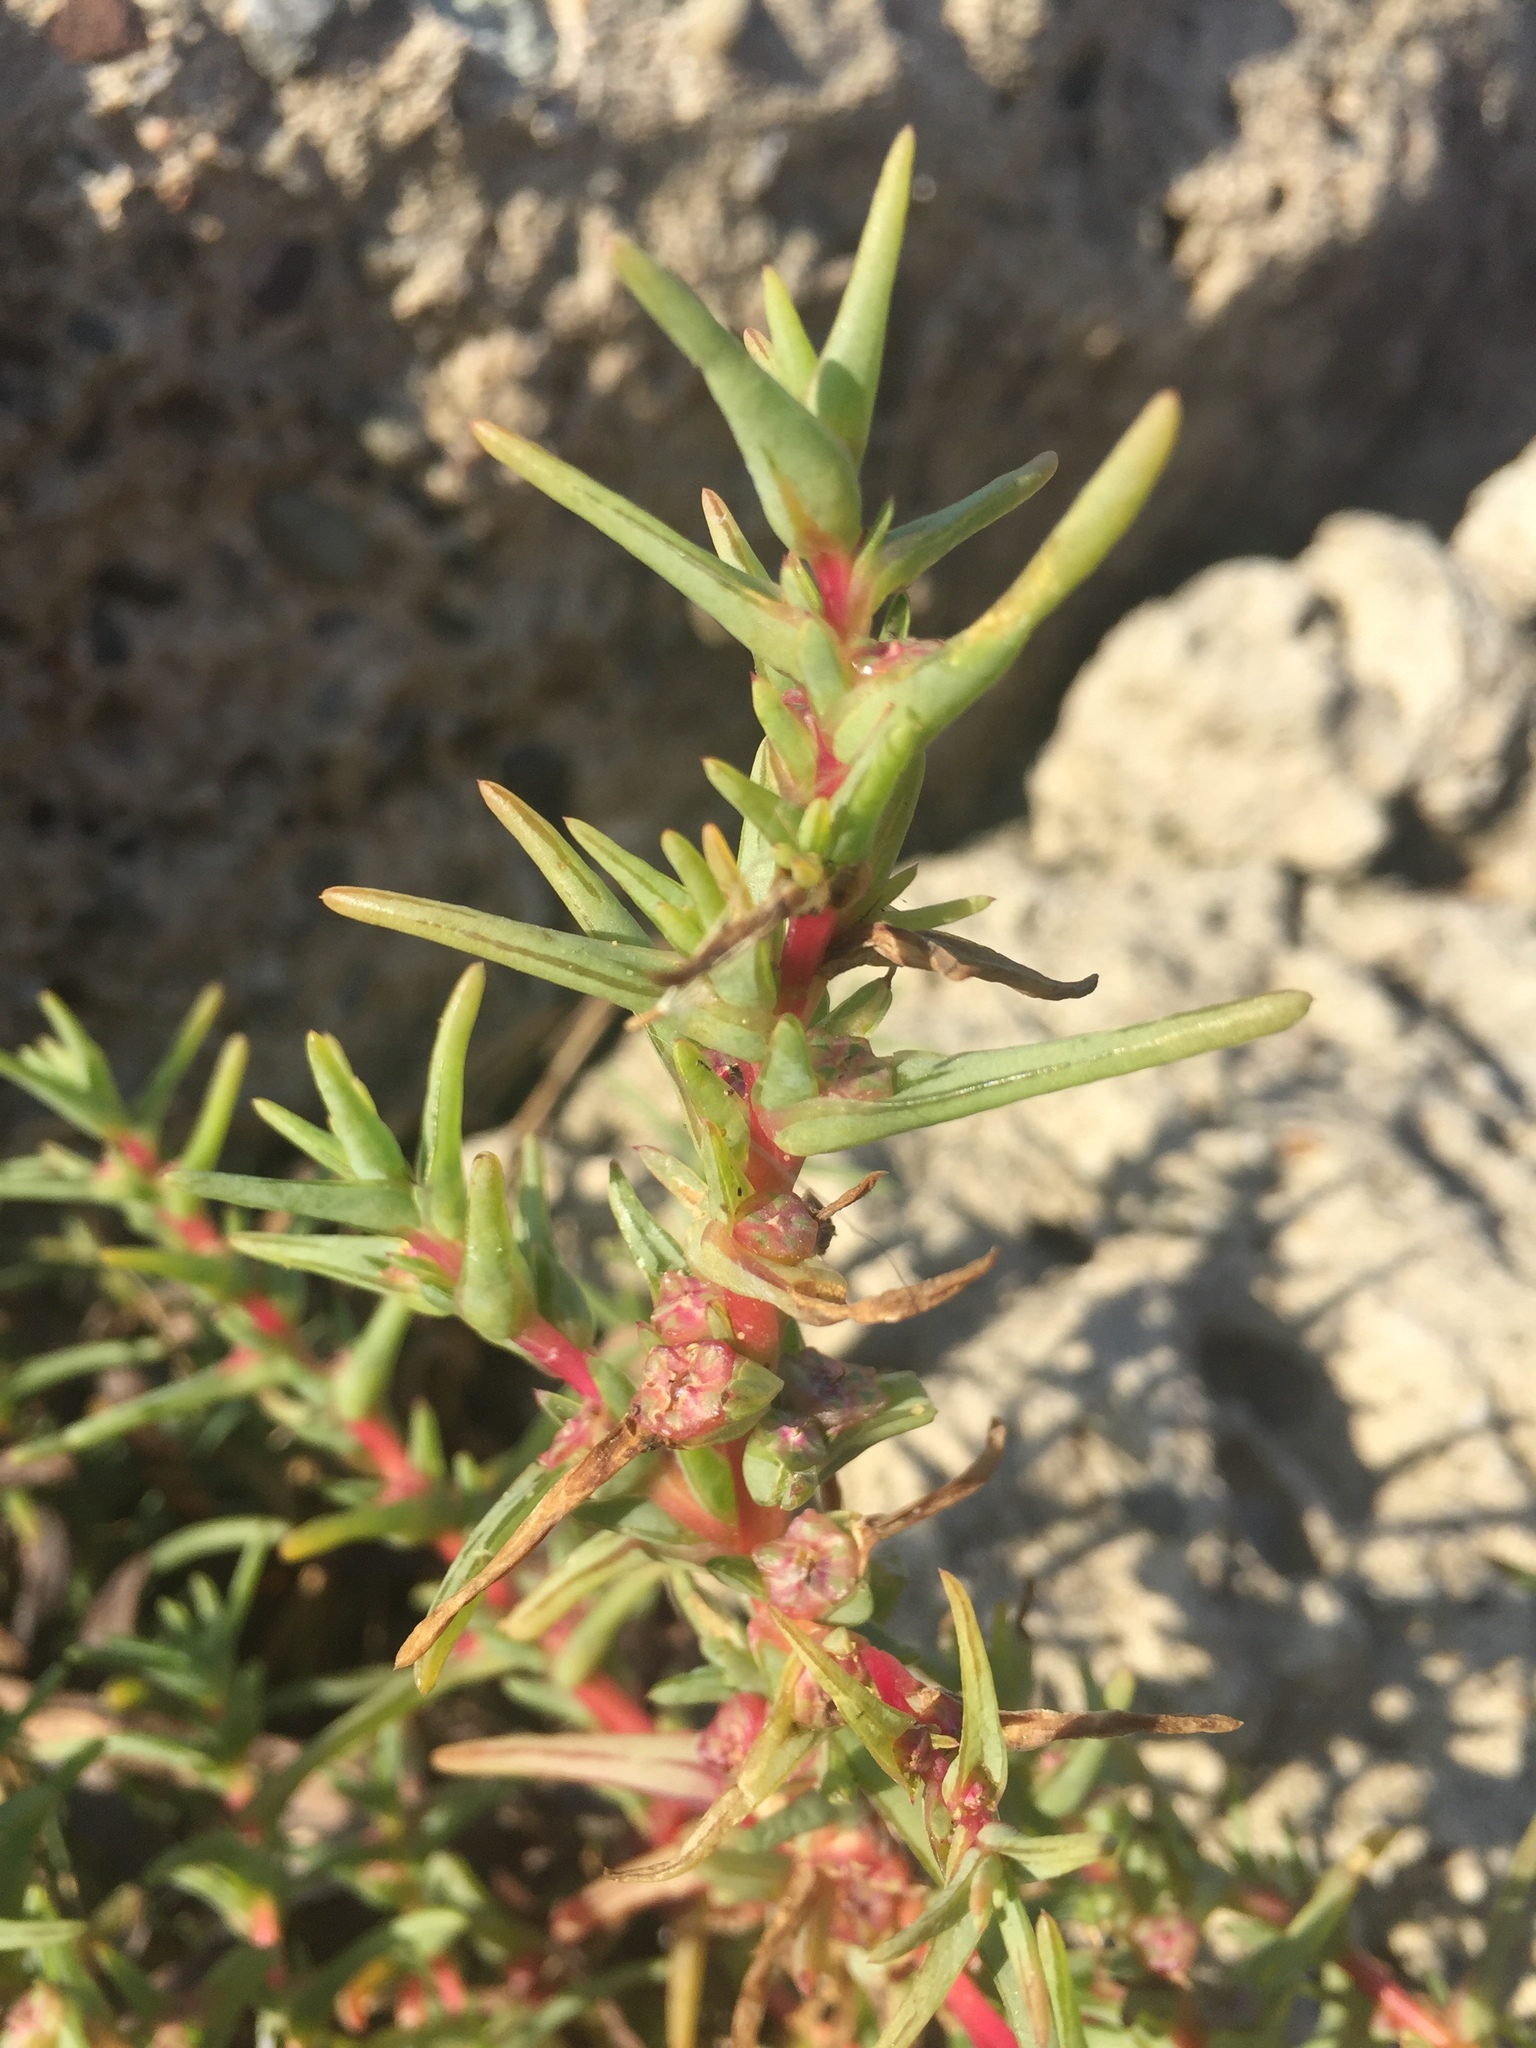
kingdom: Plantae
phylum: Tracheophyta
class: Magnoliopsida
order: Caryophyllales
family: Amaranthaceae
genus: Salsola
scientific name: Salsola soda
